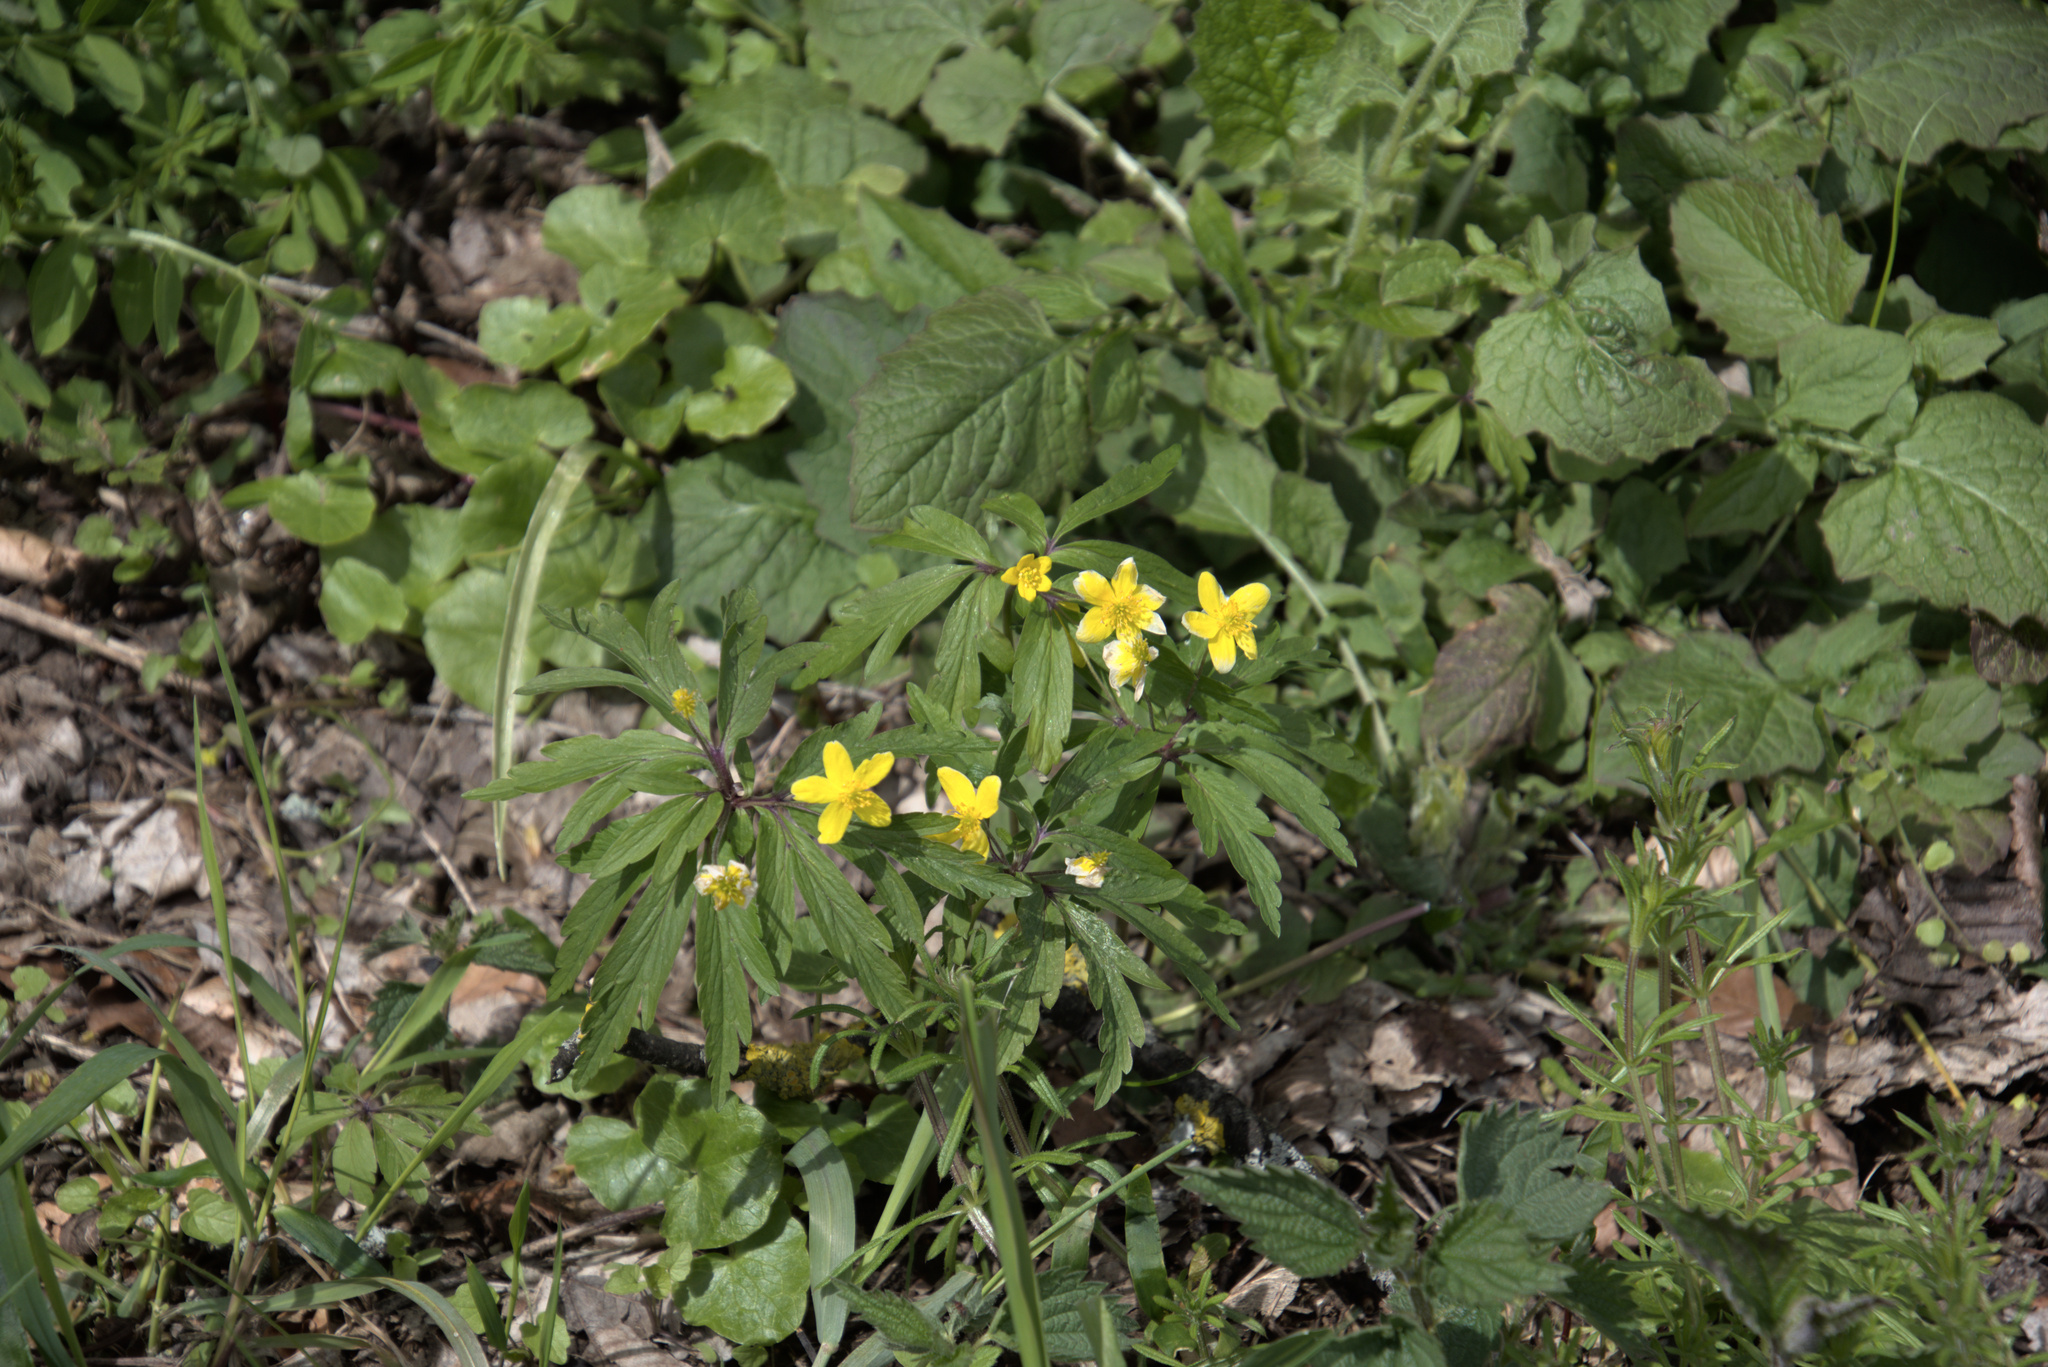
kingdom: Plantae
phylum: Tracheophyta
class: Magnoliopsida
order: Ranunculales
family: Ranunculaceae
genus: Anemone
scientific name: Anemone ranunculoides
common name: Yellow anemone
